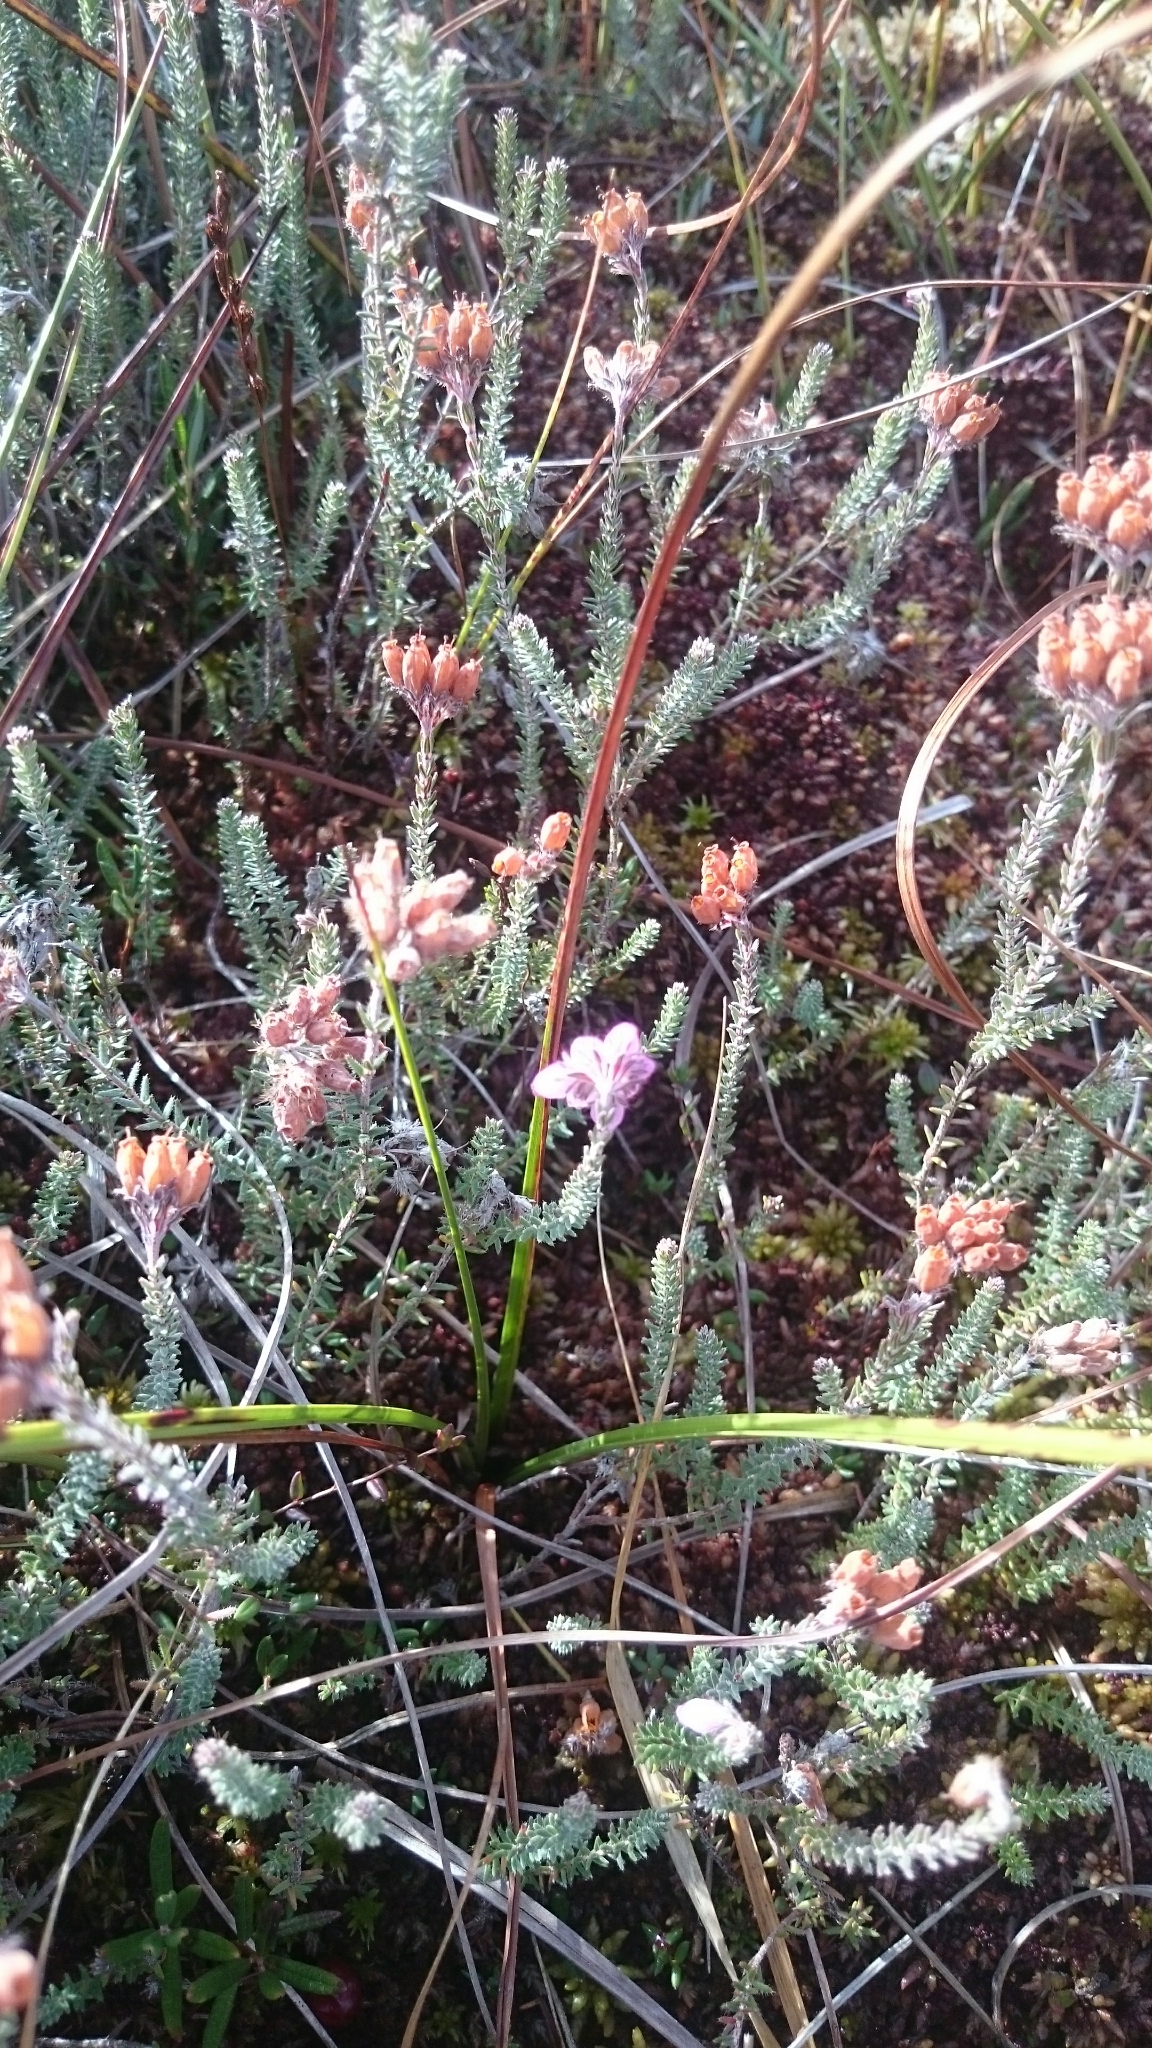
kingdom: Plantae
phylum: Tracheophyta
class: Magnoliopsida
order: Ericales
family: Ericaceae
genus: Erica
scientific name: Erica tetralix
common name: Cross-leaved heath
